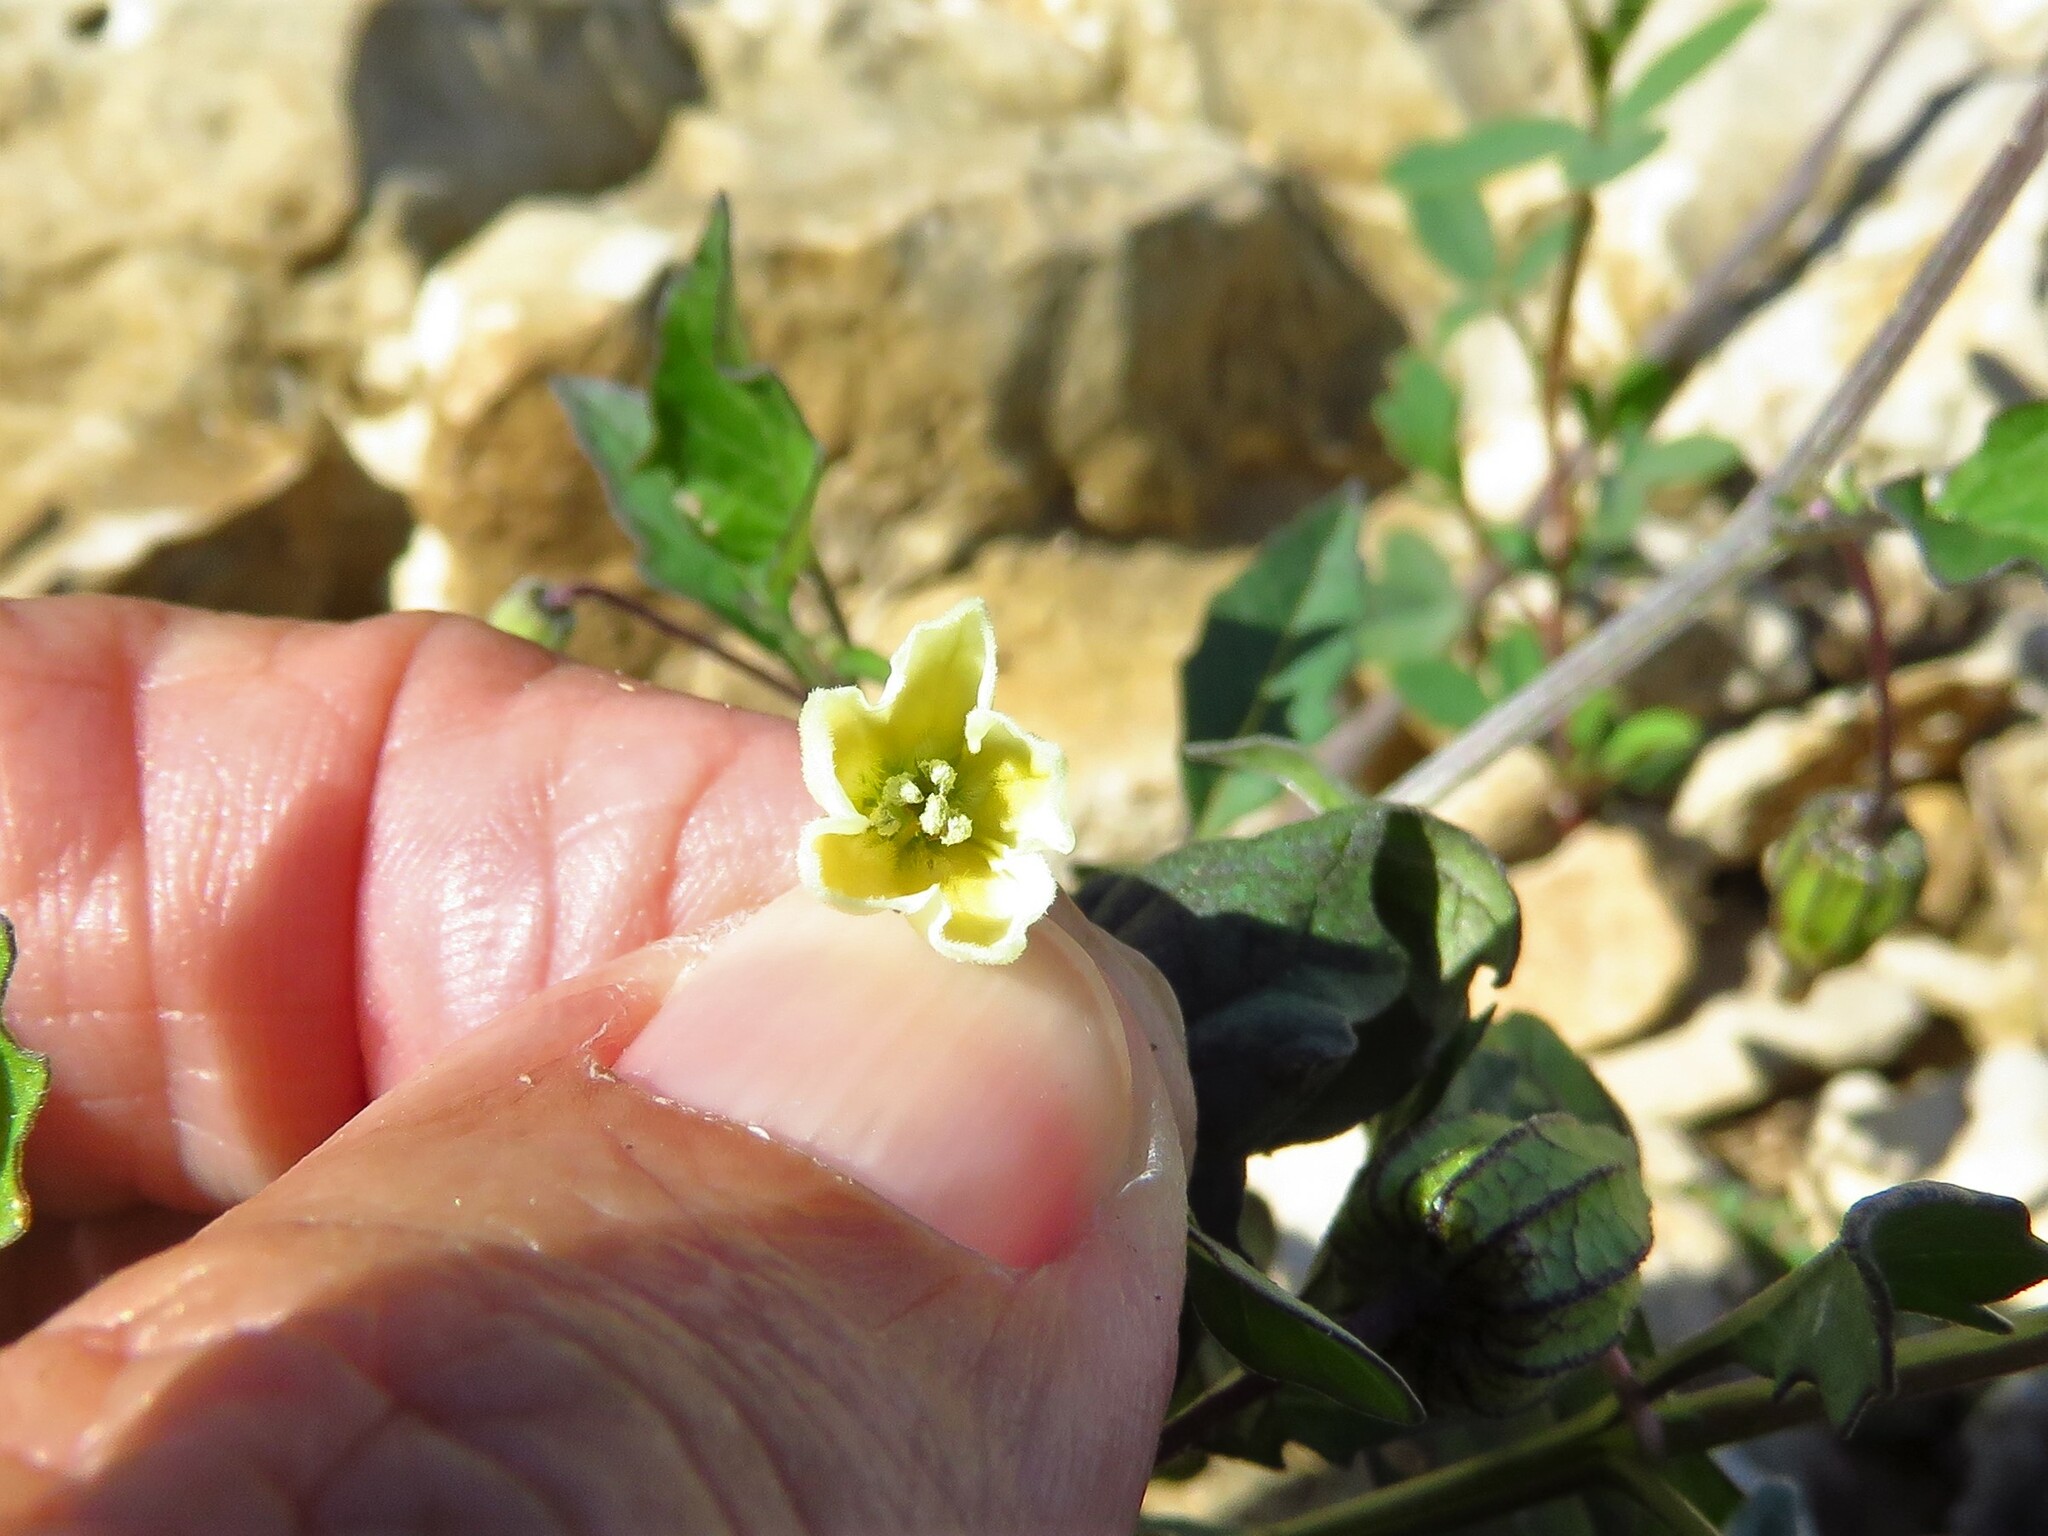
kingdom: Plantae
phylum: Tracheophyta
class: Magnoliopsida
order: Solanales
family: Solanaceae
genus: Physalis
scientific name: Physalis angulata
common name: Angular winter-cherry
